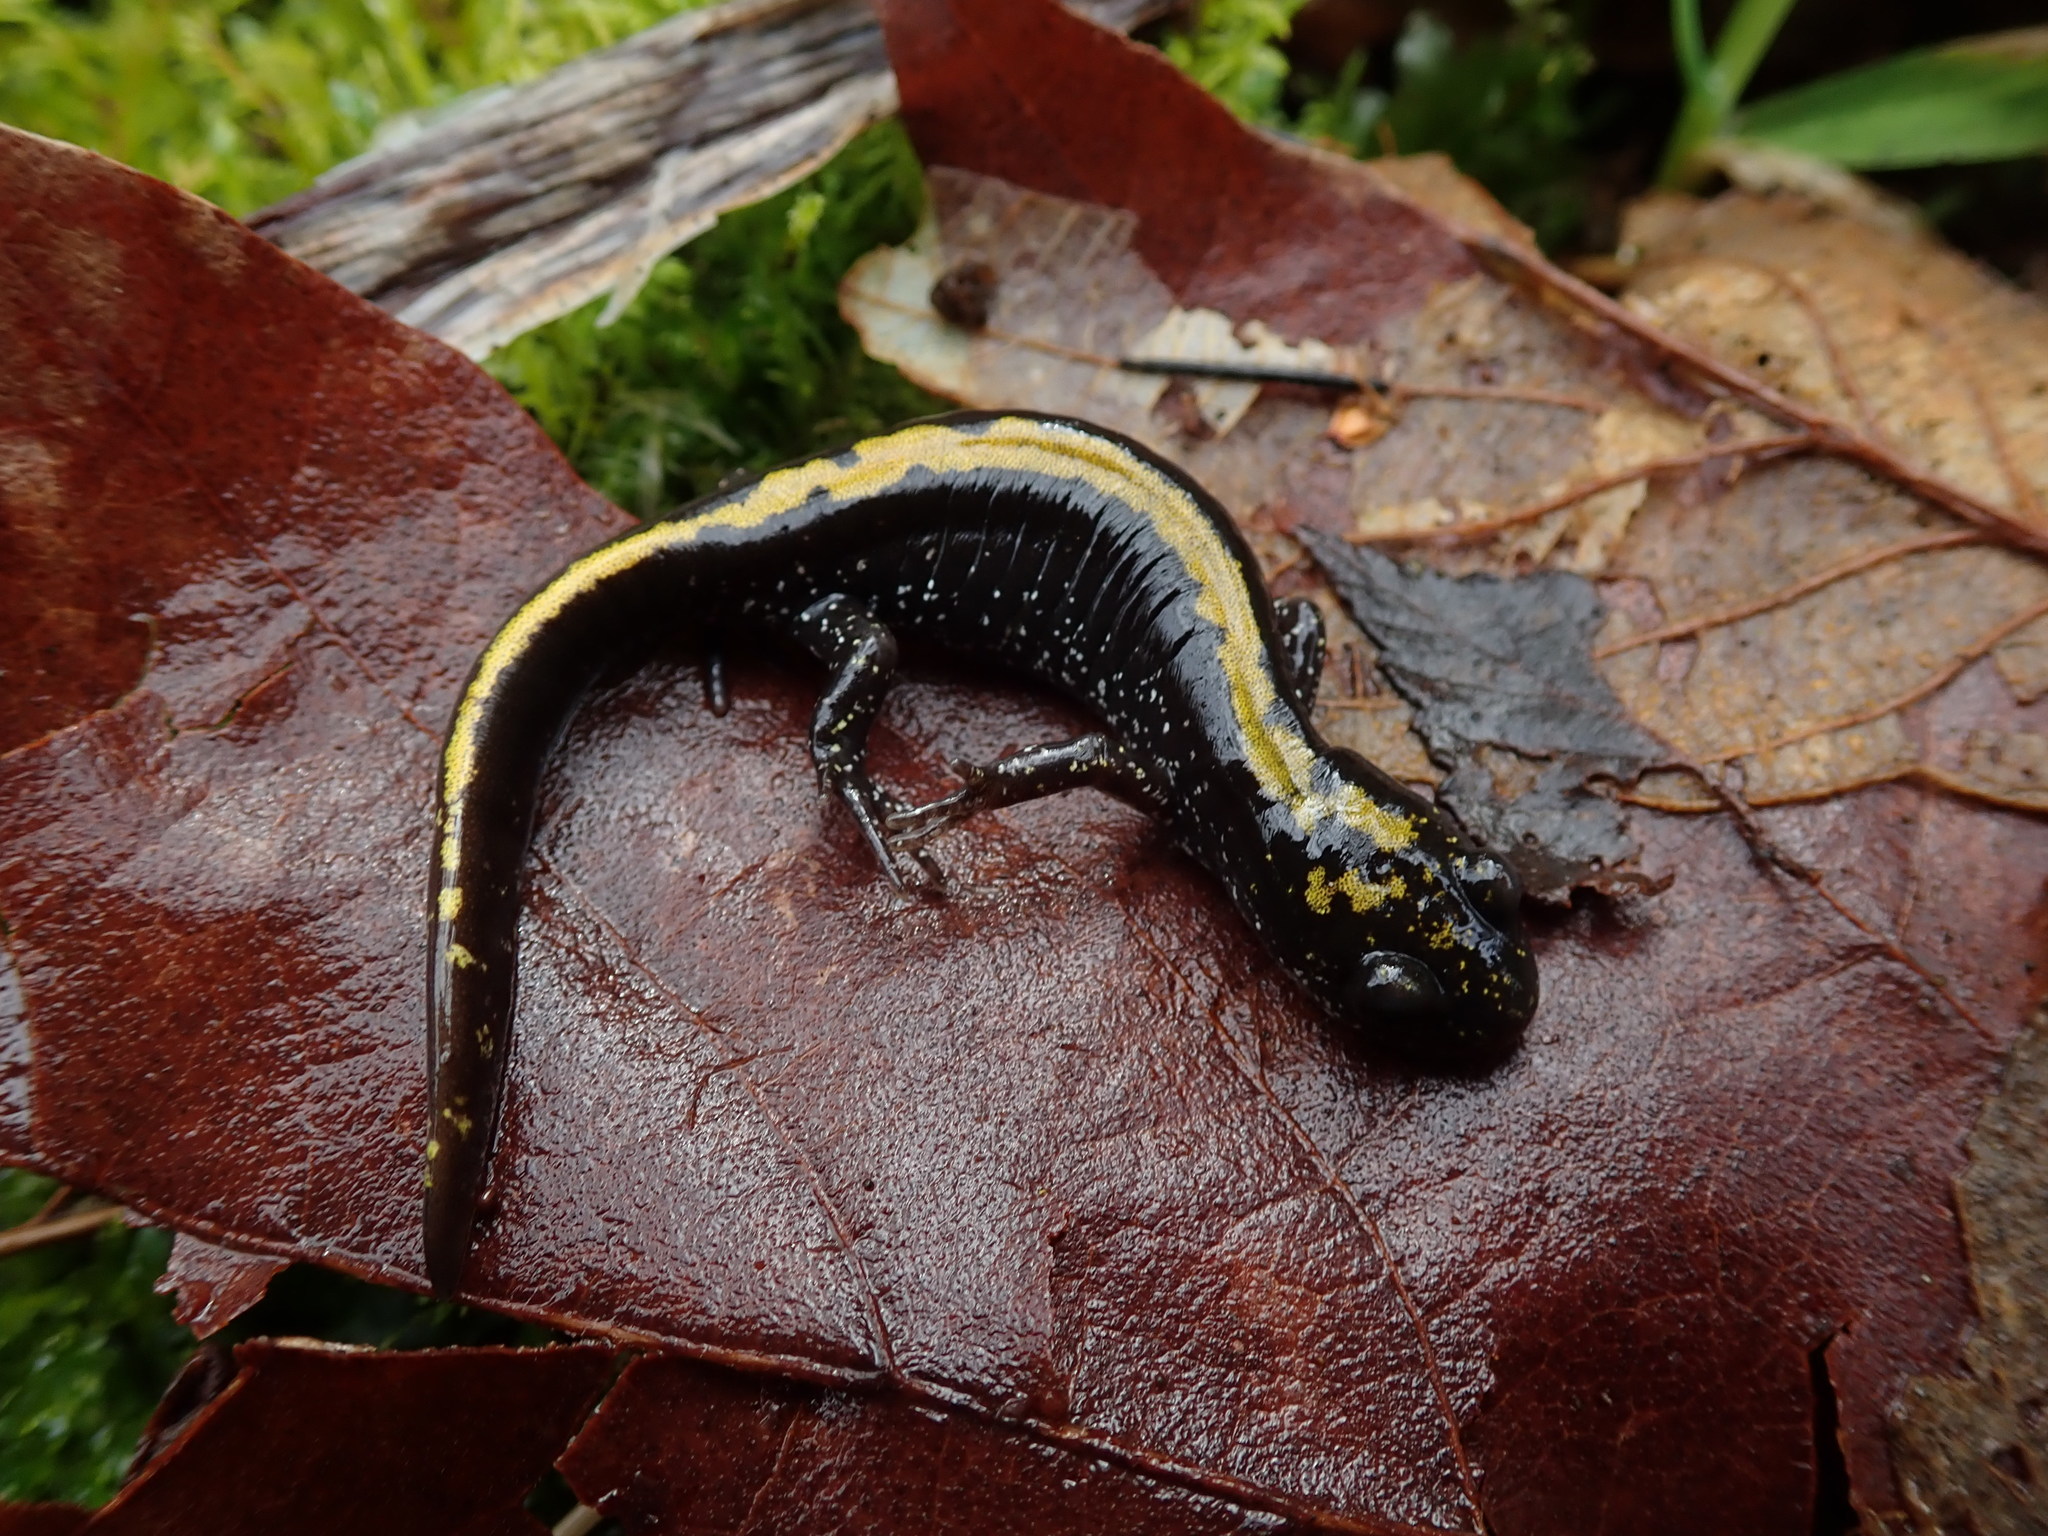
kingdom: Animalia
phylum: Chordata
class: Amphibia
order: Caudata
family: Ambystomatidae
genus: Ambystoma
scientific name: Ambystoma macrodactylum
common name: Long-toed salamander
